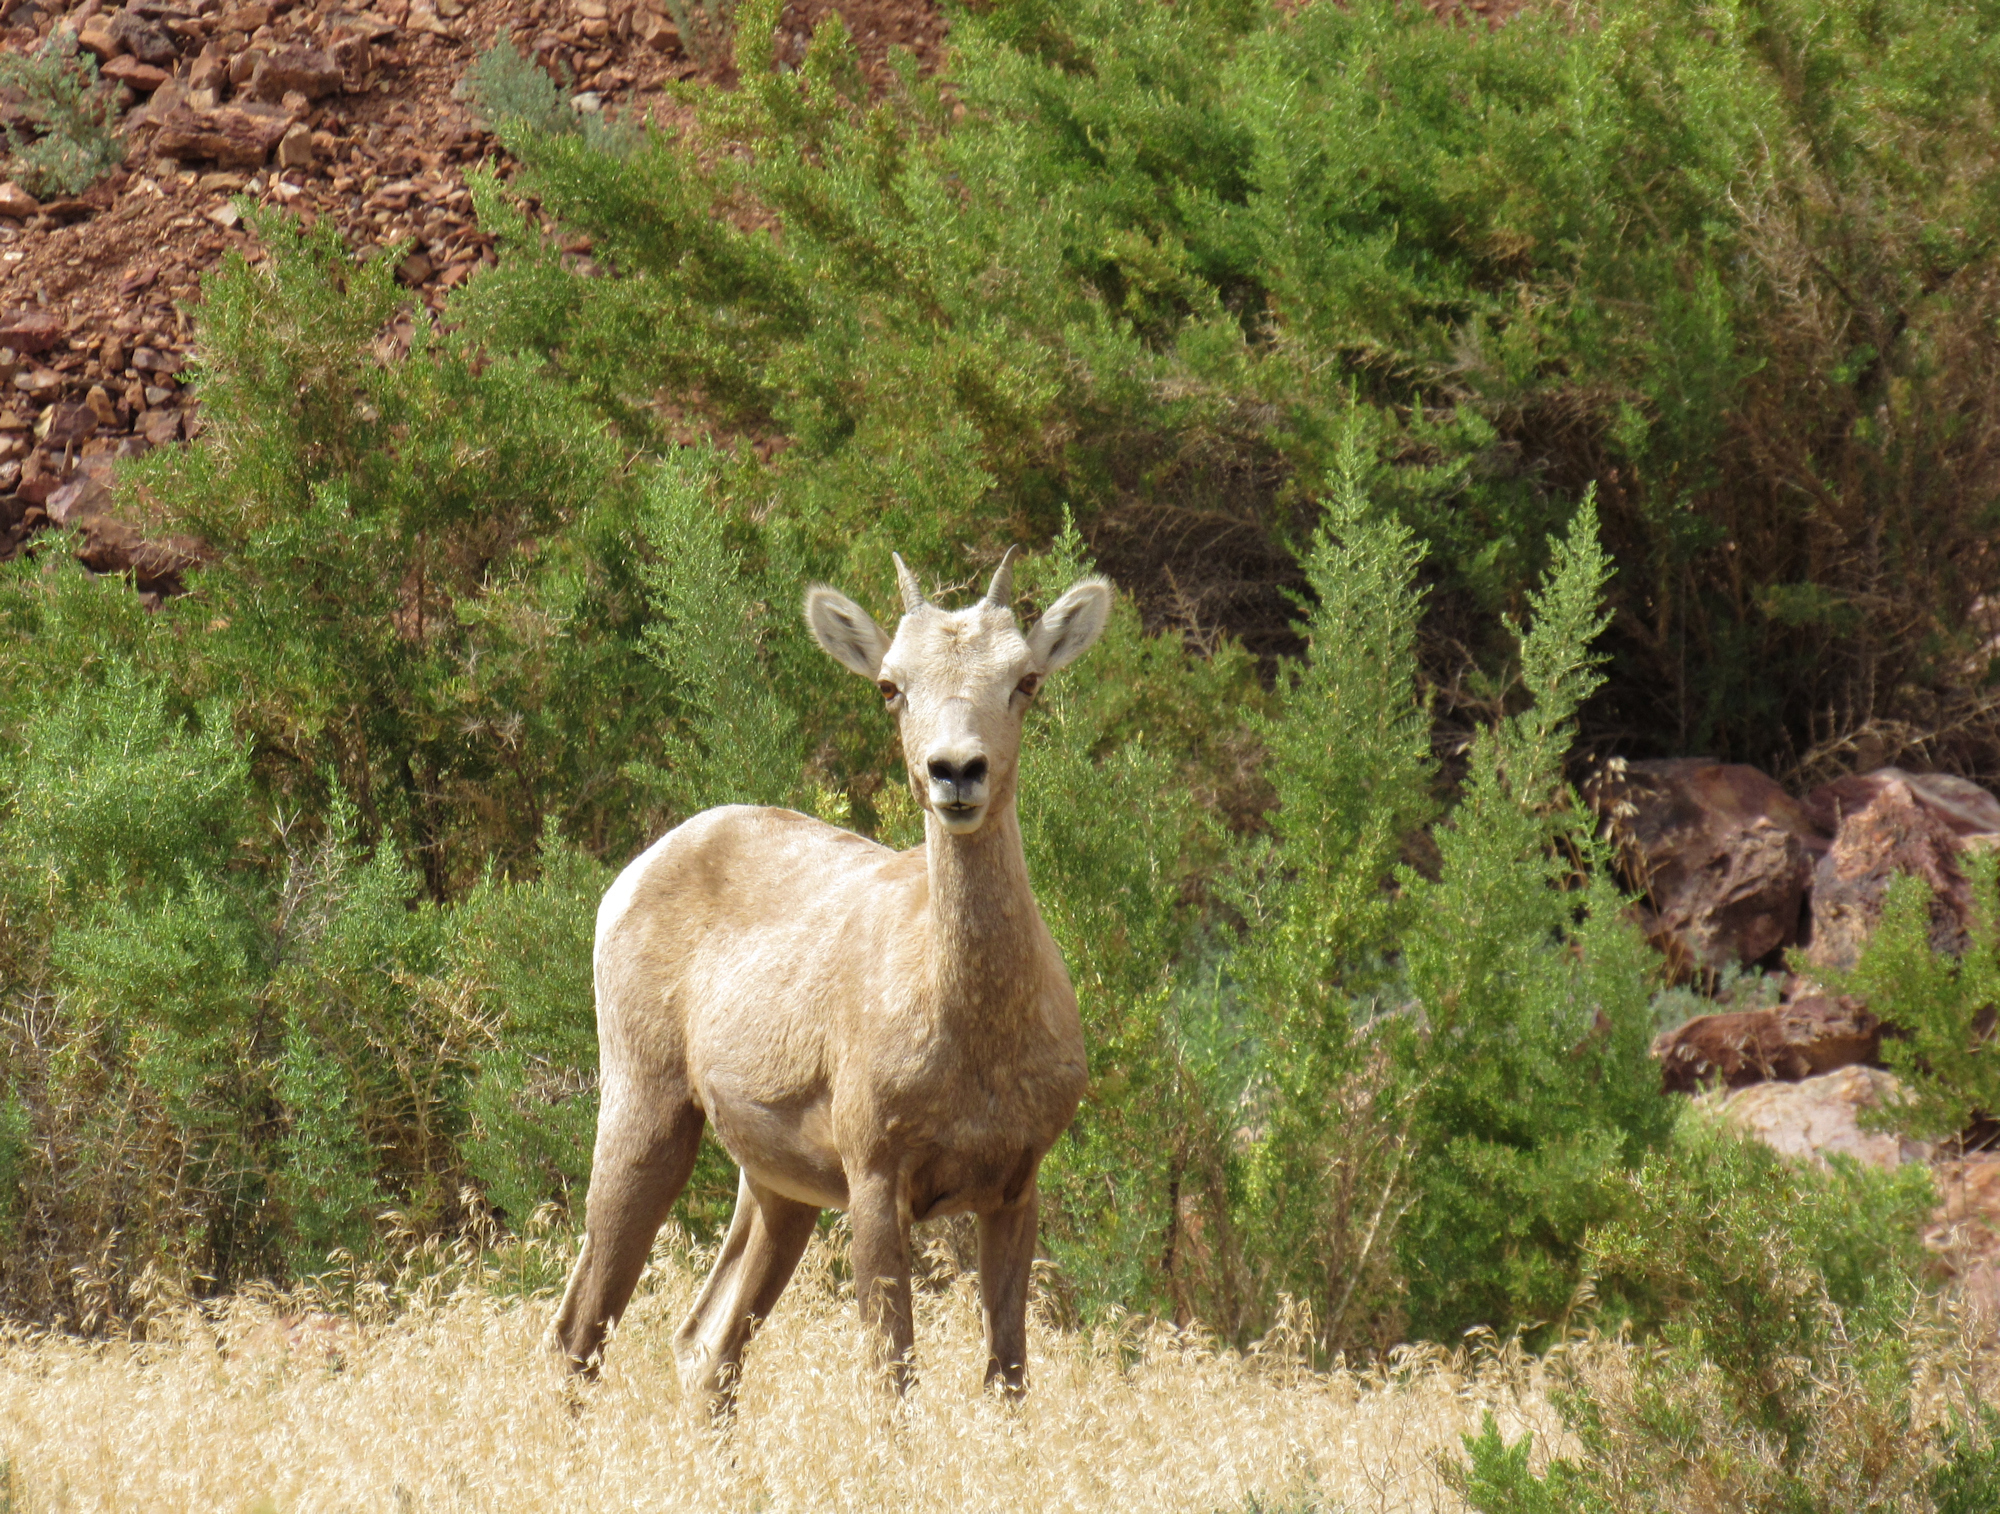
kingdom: Animalia
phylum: Chordata
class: Mammalia
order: Artiodactyla
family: Bovidae
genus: Ovis
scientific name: Ovis canadensis
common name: Bighorn sheep
